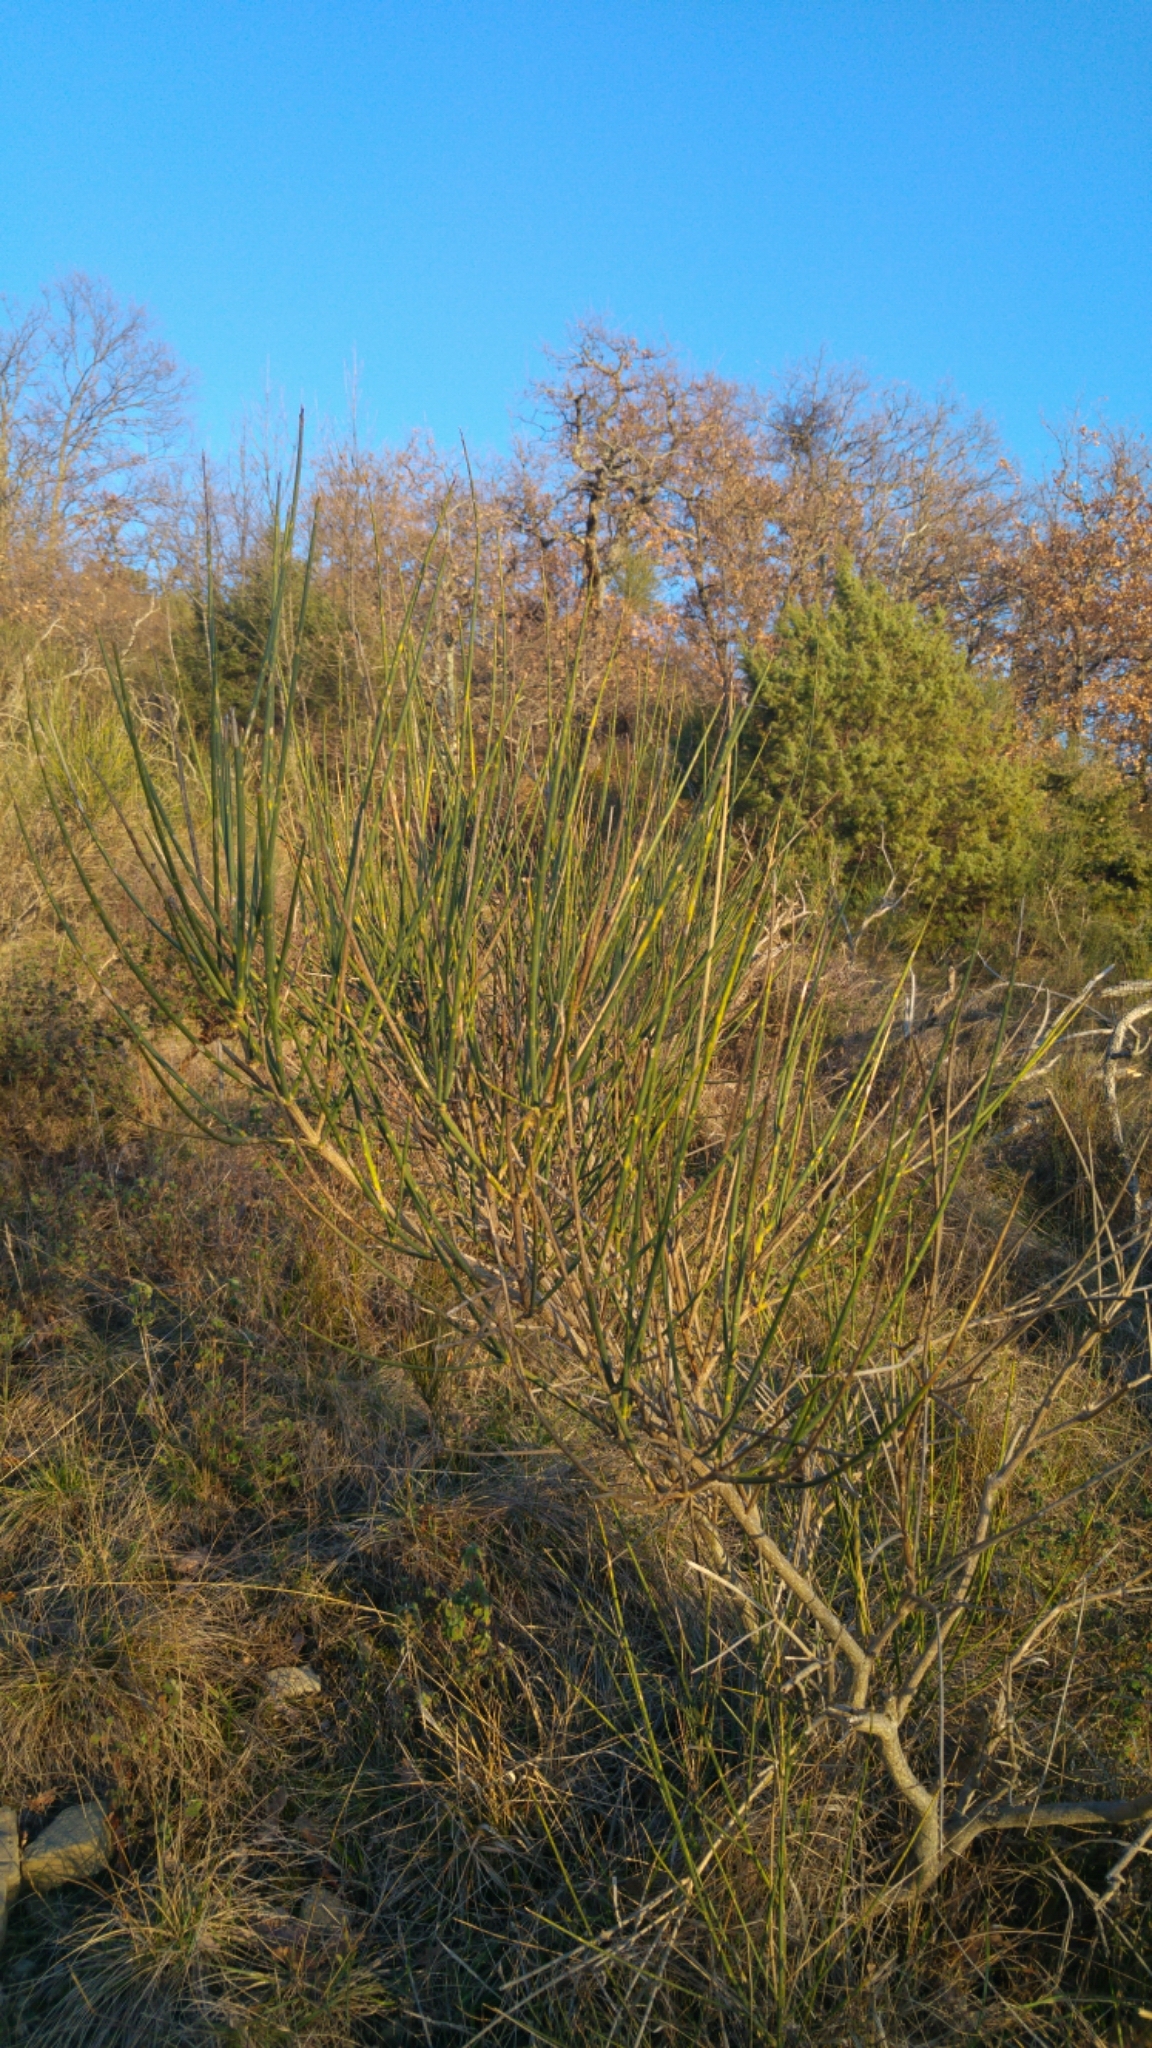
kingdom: Plantae
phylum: Tracheophyta
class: Magnoliopsida
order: Fabales
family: Fabaceae
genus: Spartium
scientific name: Spartium junceum
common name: Spanish broom
